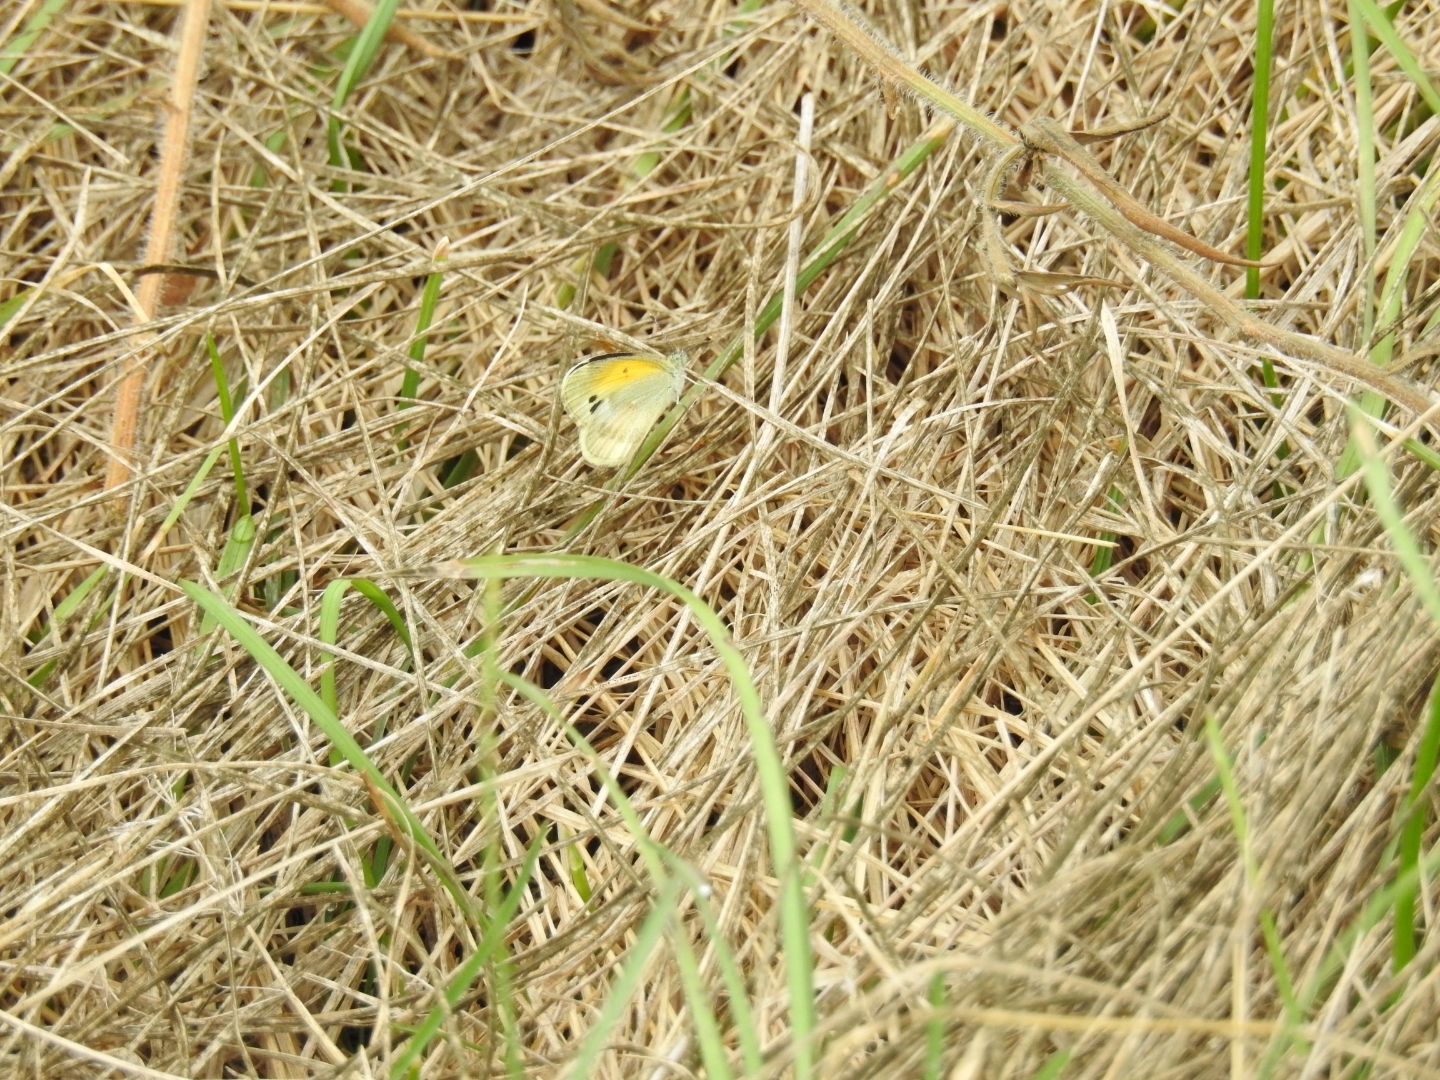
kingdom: Animalia
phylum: Arthropoda
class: Insecta
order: Lepidoptera
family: Pieridae
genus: Nathalis
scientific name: Nathalis iole
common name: Dainty sulphur
